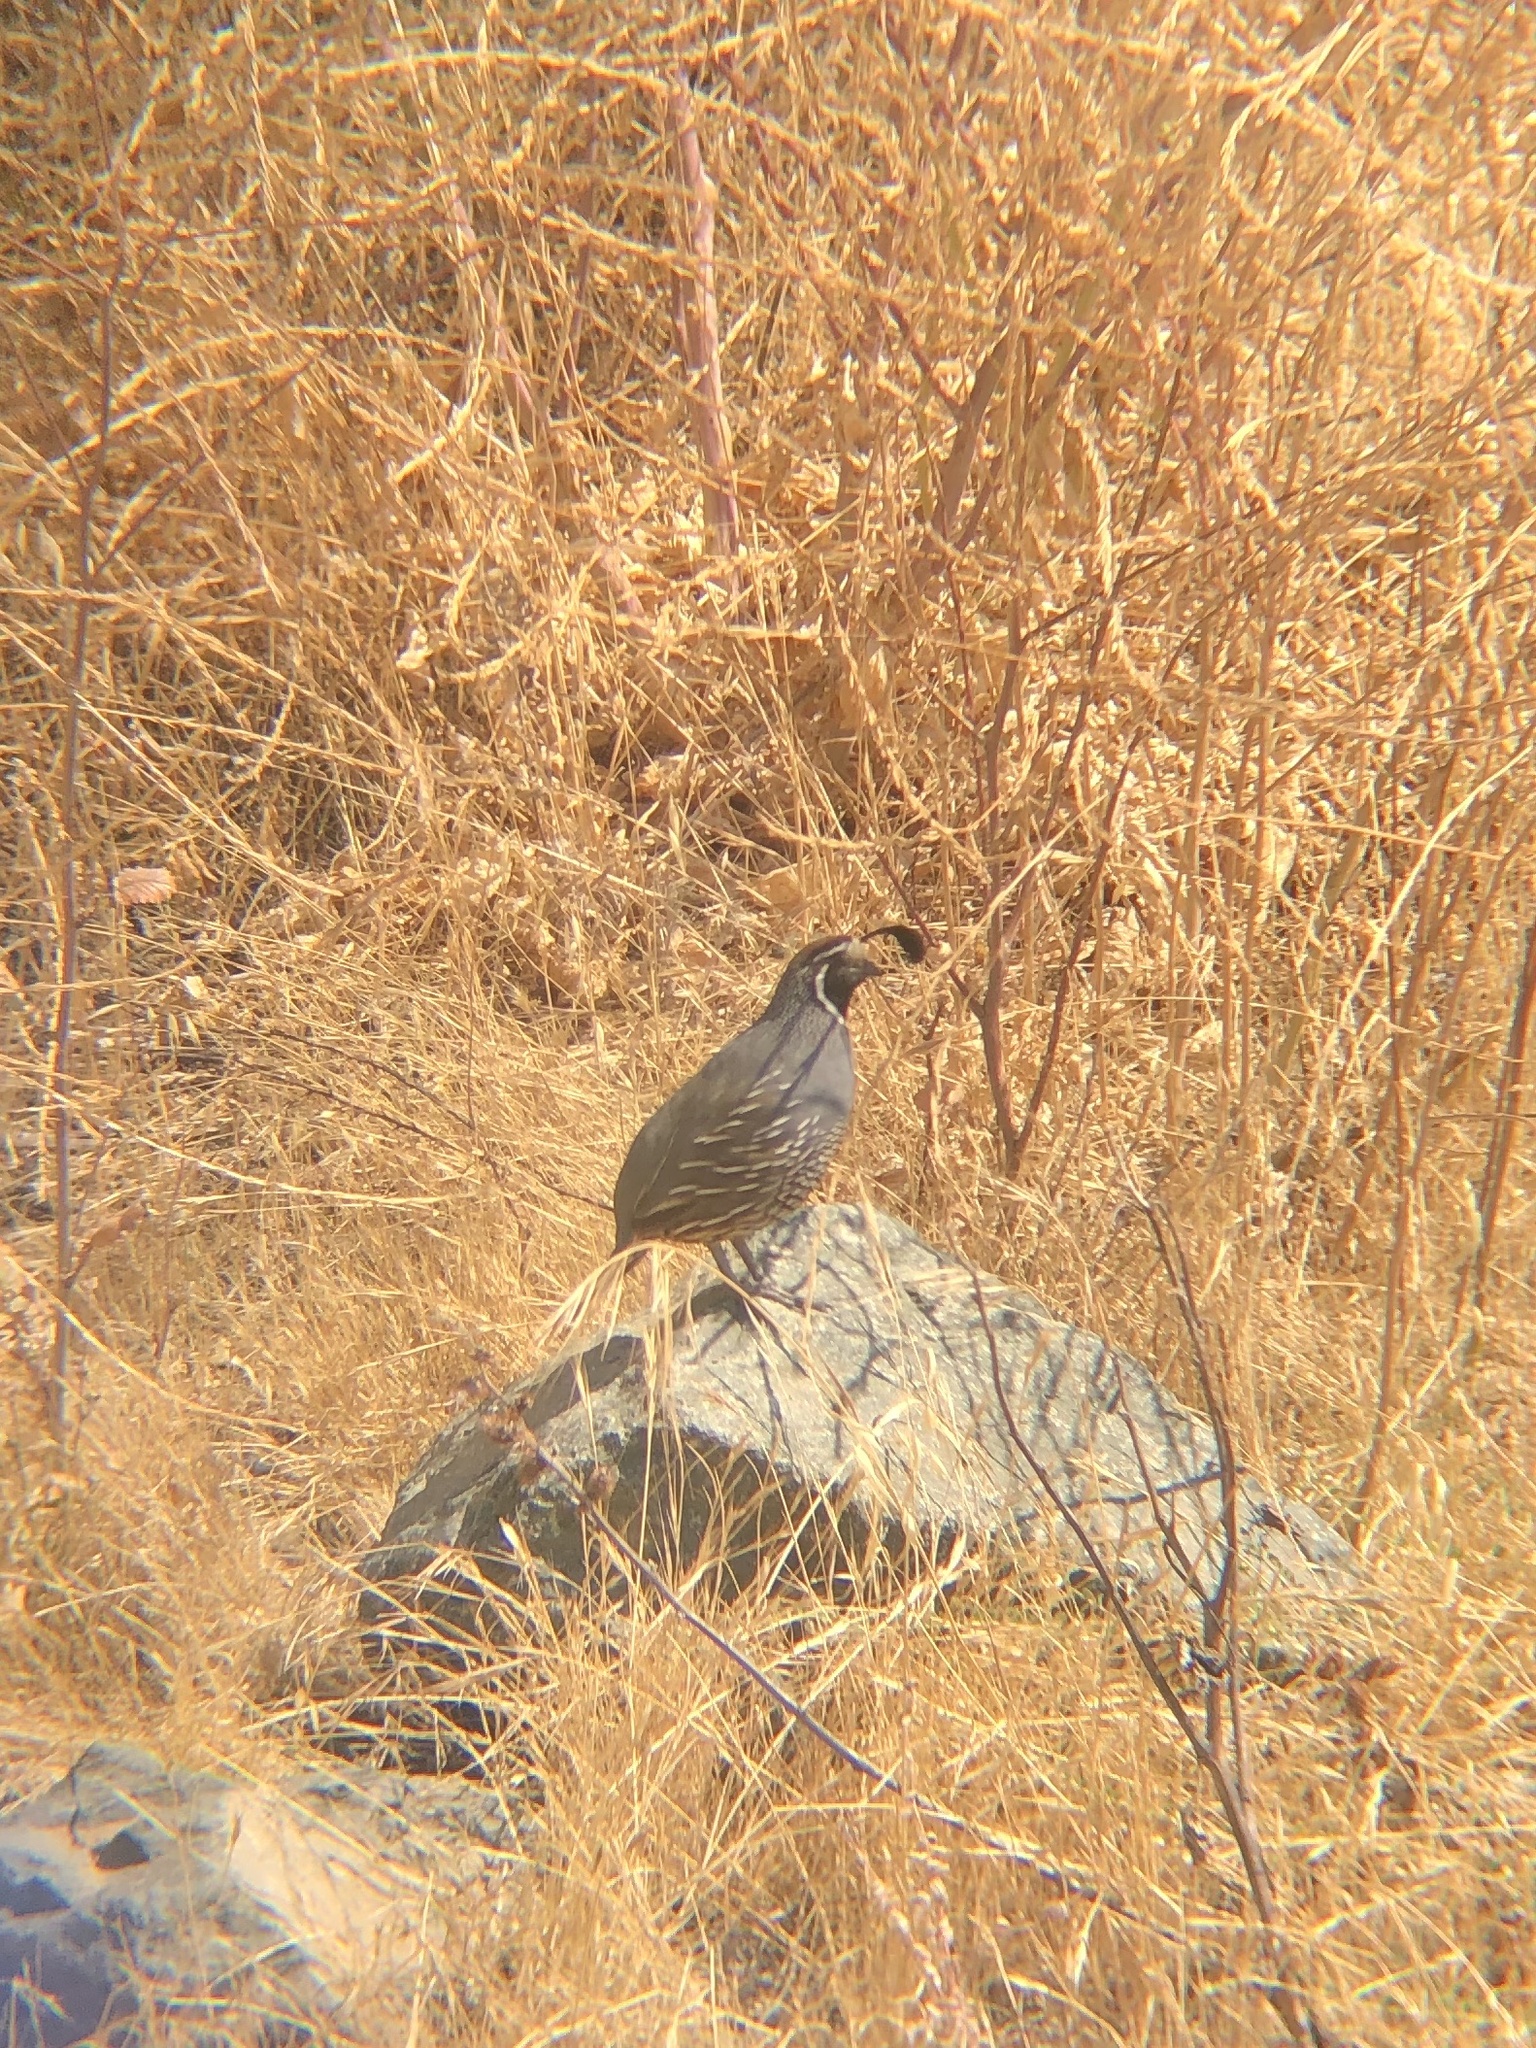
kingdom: Animalia
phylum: Chordata
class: Aves
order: Galliformes
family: Odontophoridae
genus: Callipepla
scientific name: Callipepla californica
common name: California quail
